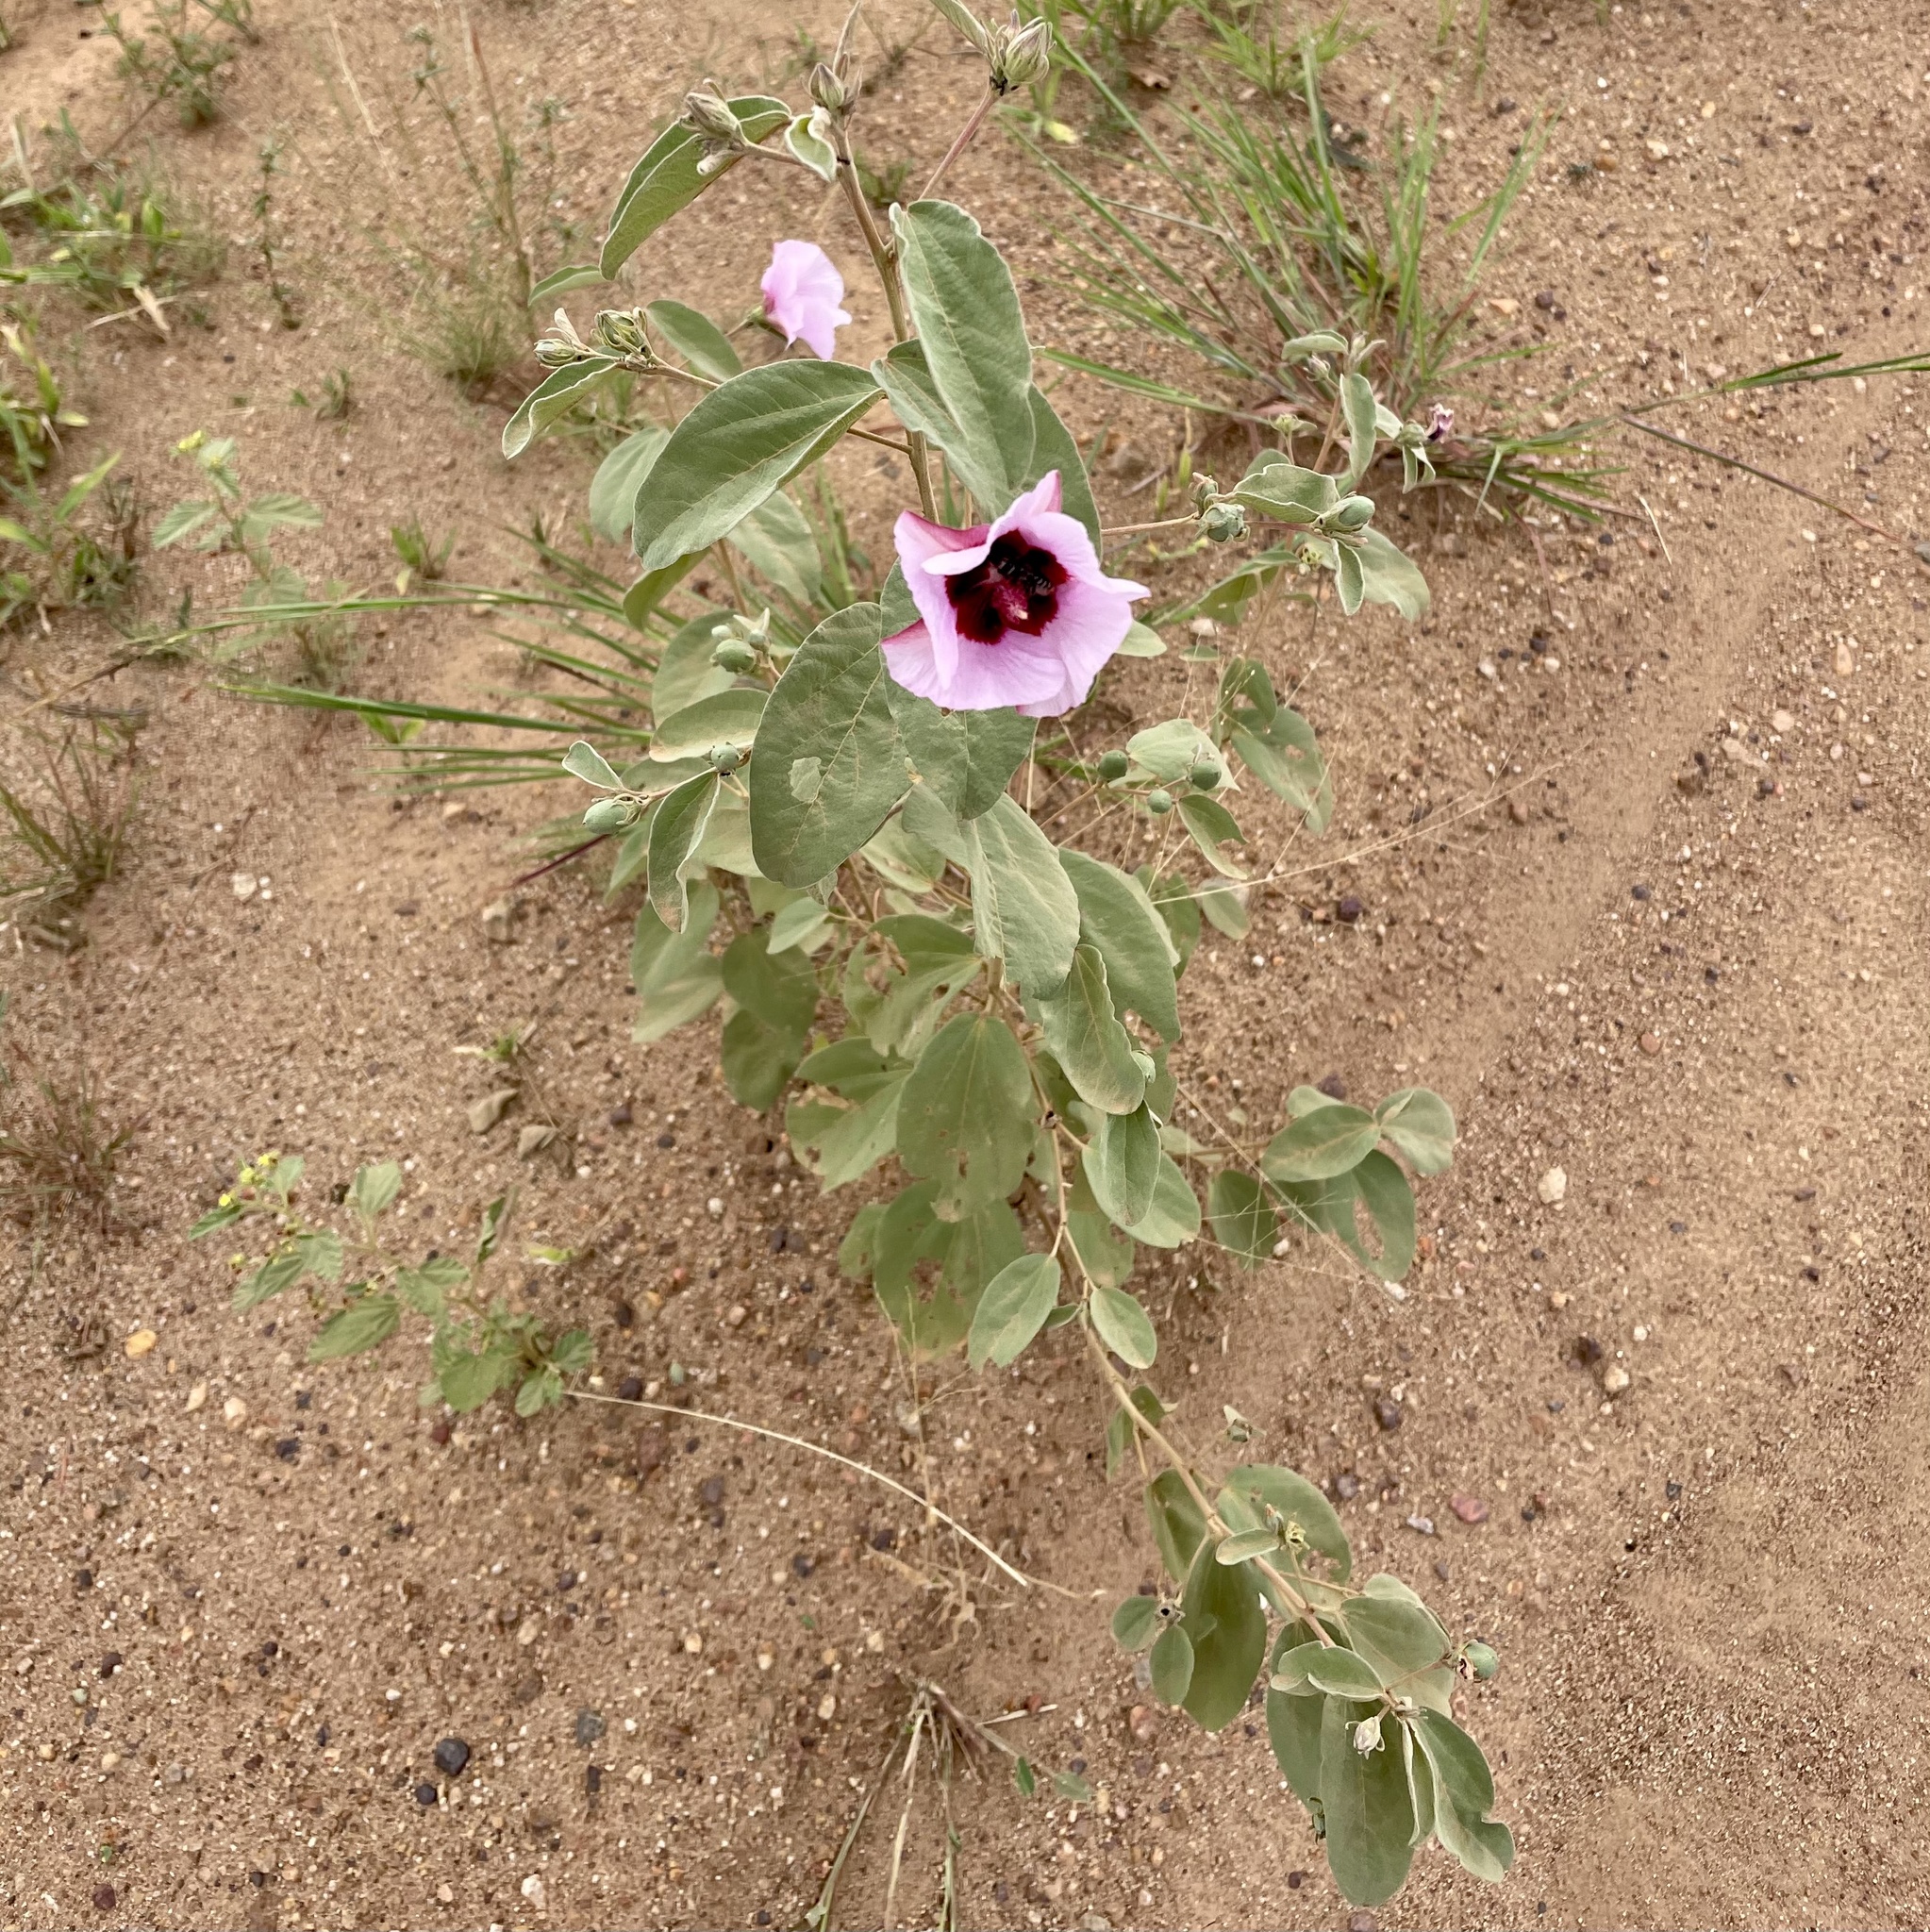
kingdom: Plantae
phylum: Tracheophyta
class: Magnoliopsida
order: Malvales
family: Malvaceae
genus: Cienfuegosia
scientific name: Cienfuegosia australis
